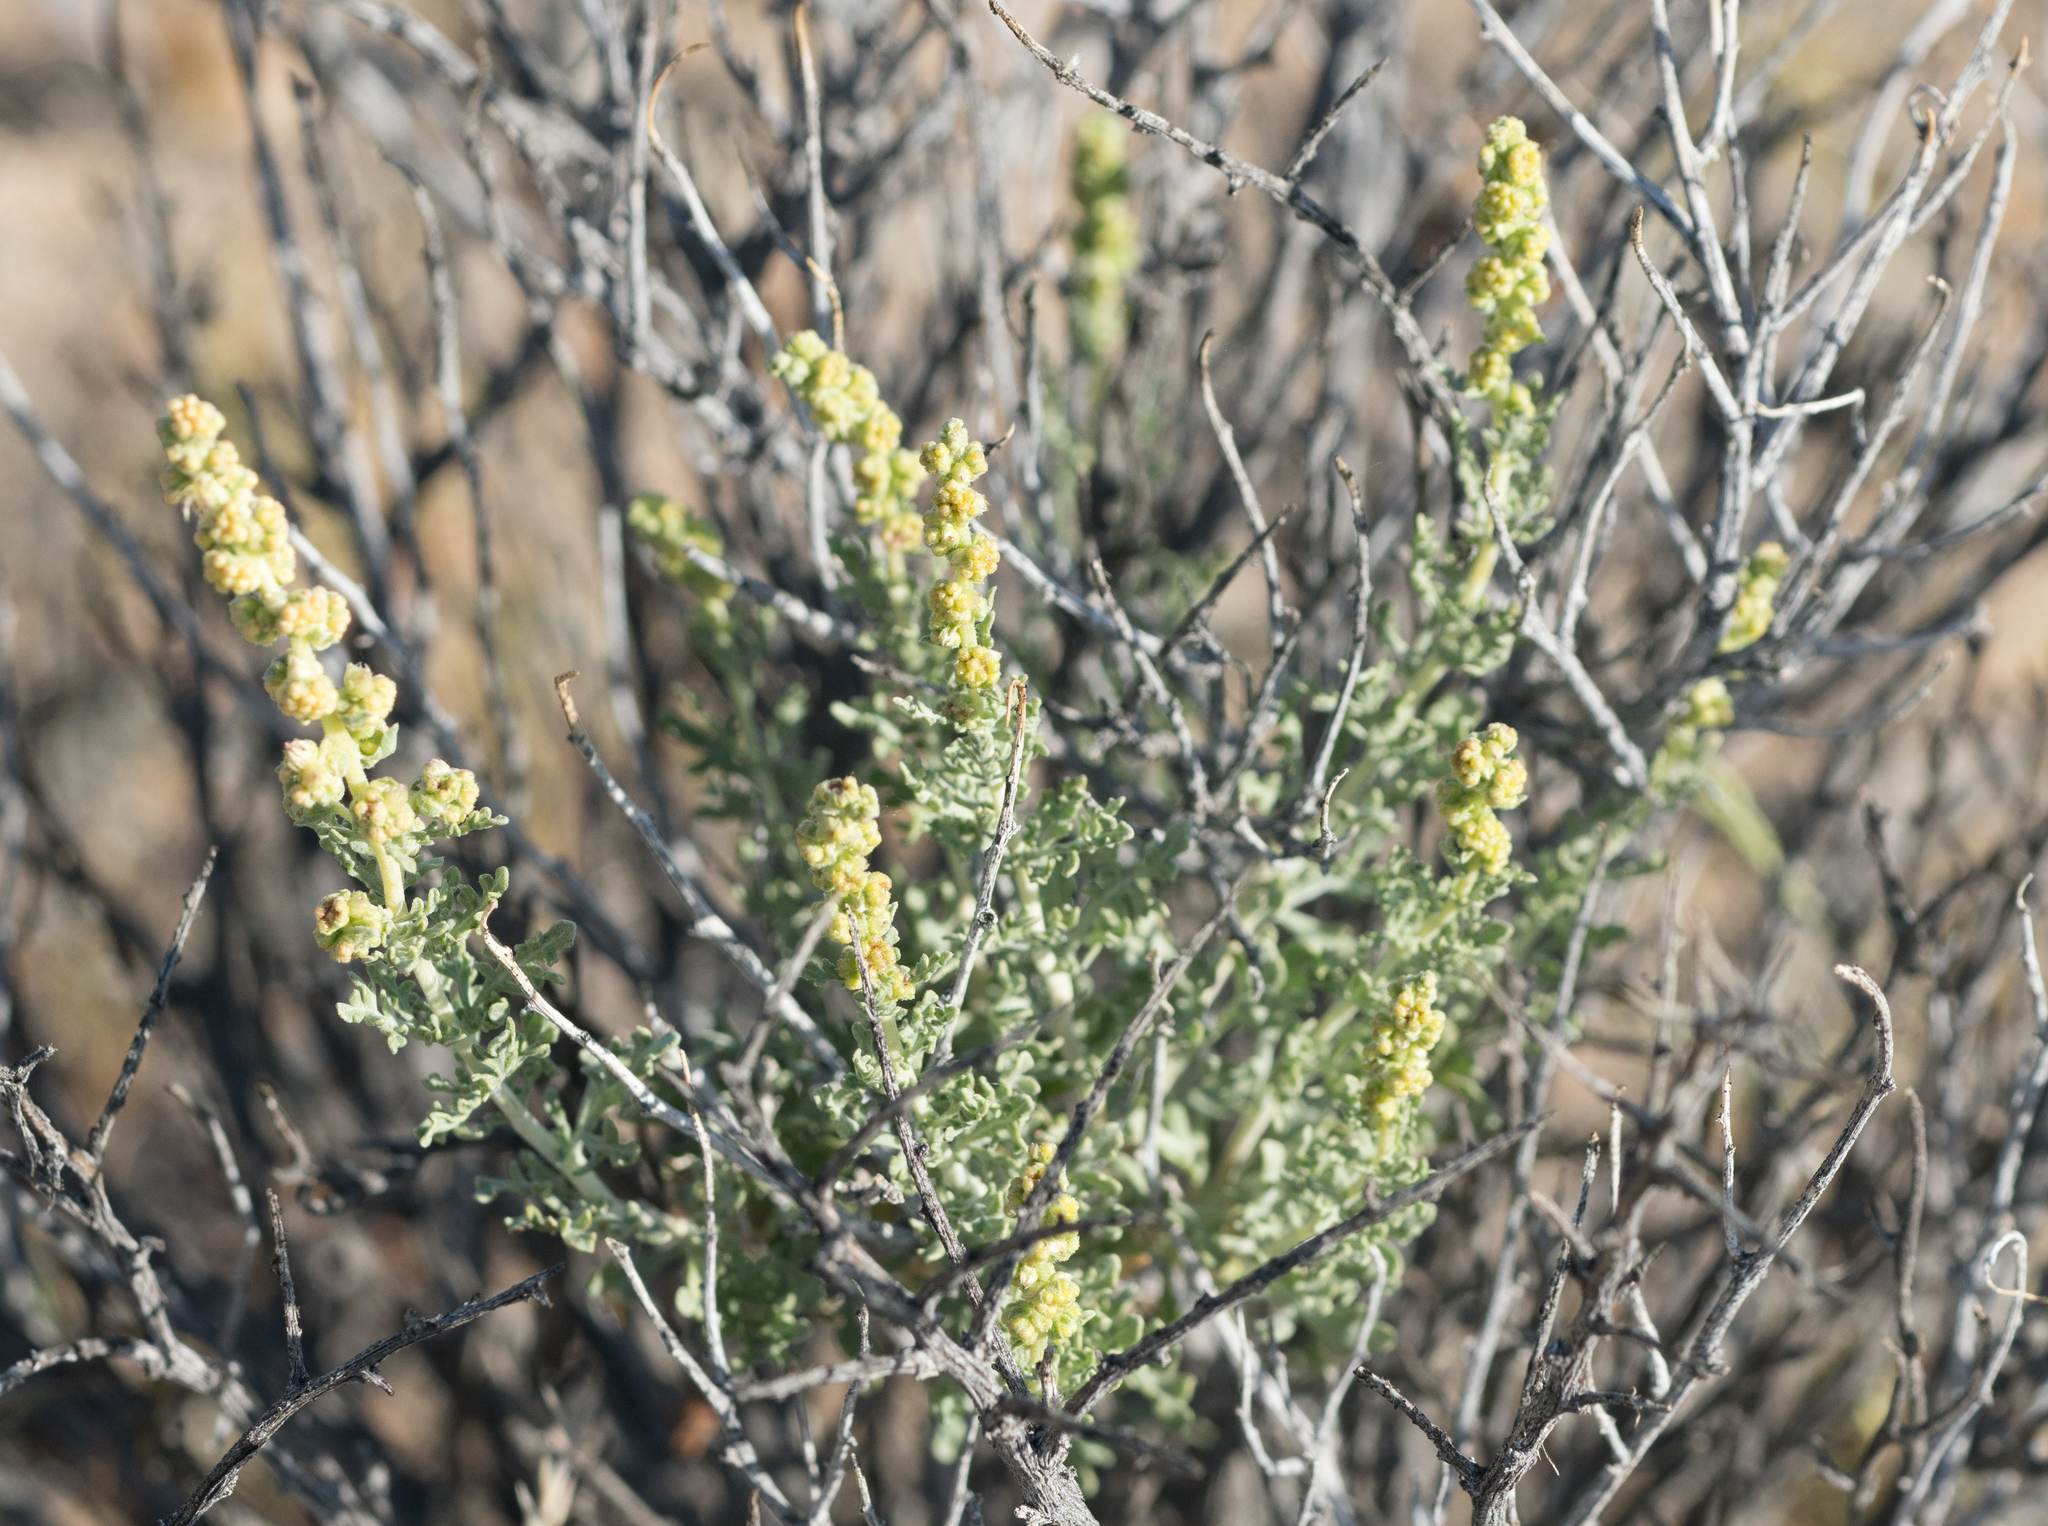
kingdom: Plantae
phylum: Tracheophyta
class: Magnoliopsida
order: Asterales
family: Asteraceae
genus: Ambrosia
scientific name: Ambrosia dumosa
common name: Bur-sage
